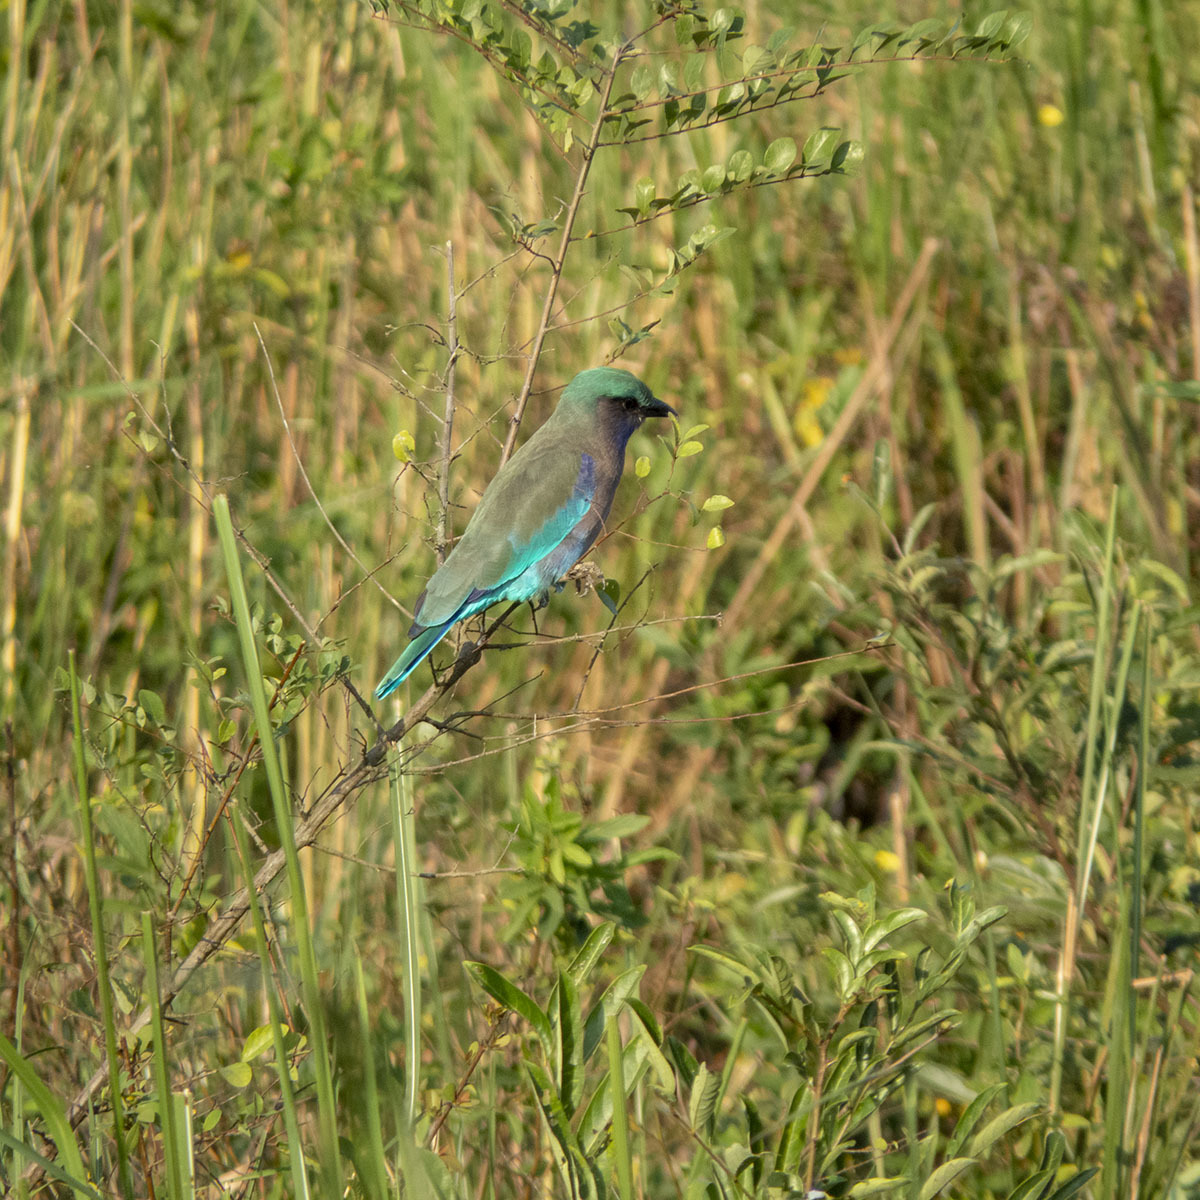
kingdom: Animalia
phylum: Chordata
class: Aves
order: Coraciiformes
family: Coraciidae
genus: Coracias
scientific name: Coracias affinis
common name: Indochinese roller
